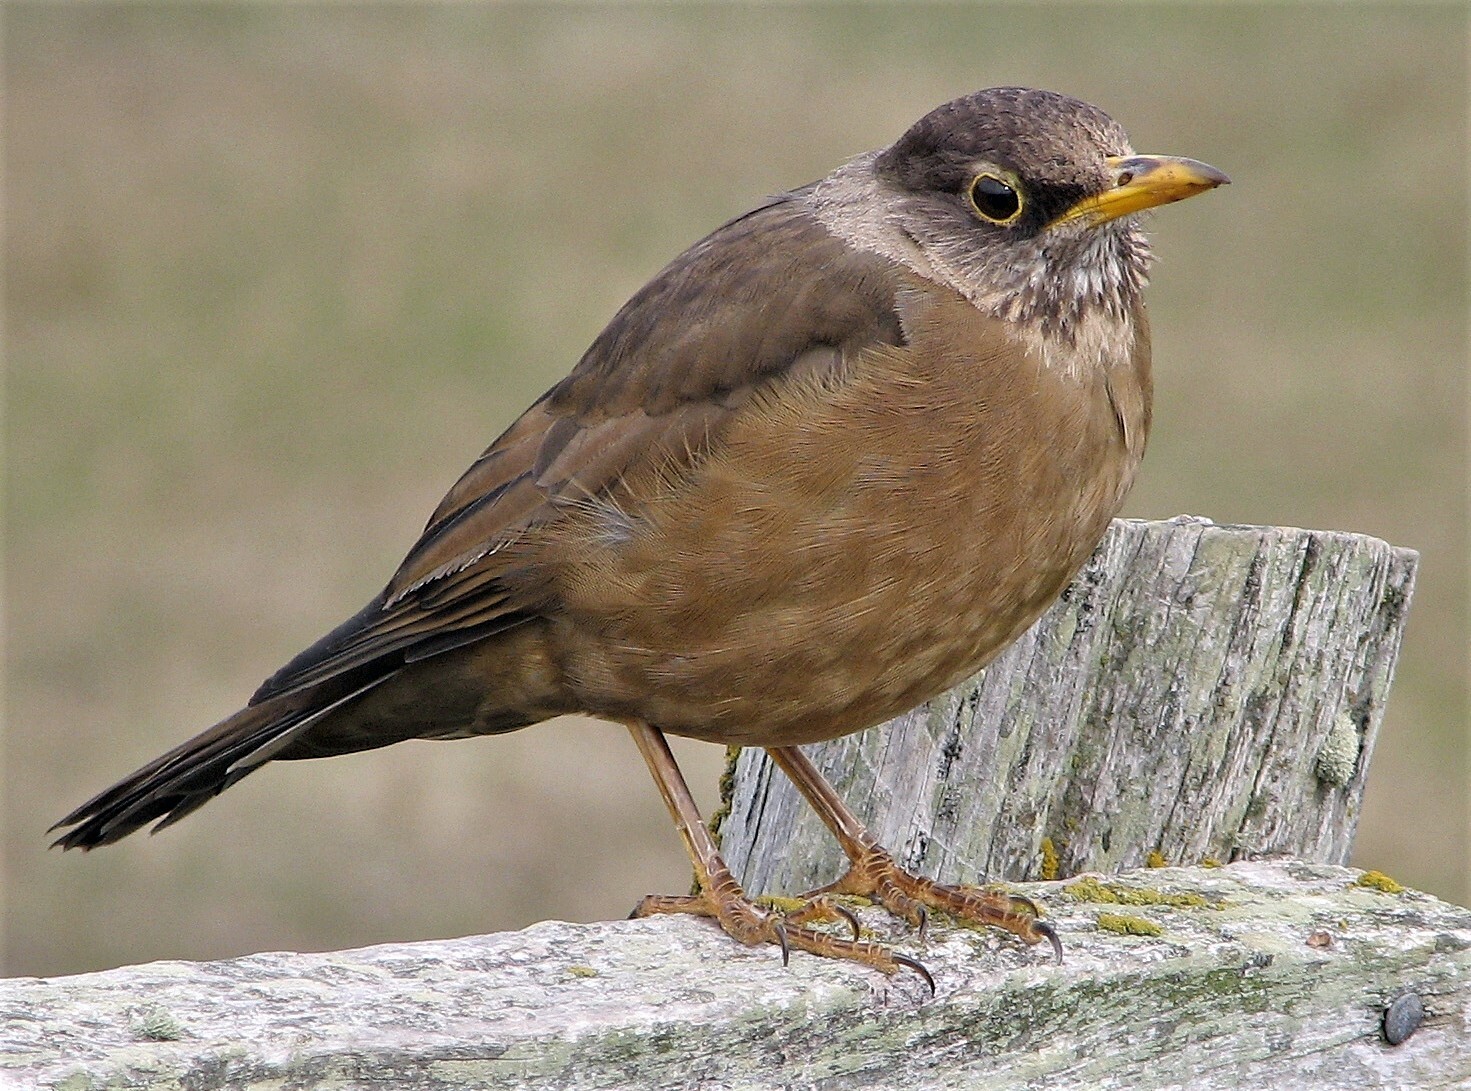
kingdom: Animalia
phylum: Chordata
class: Aves
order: Passeriformes
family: Turdidae
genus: Turdus
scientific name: Turdus falcklandii
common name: Austral thrush
